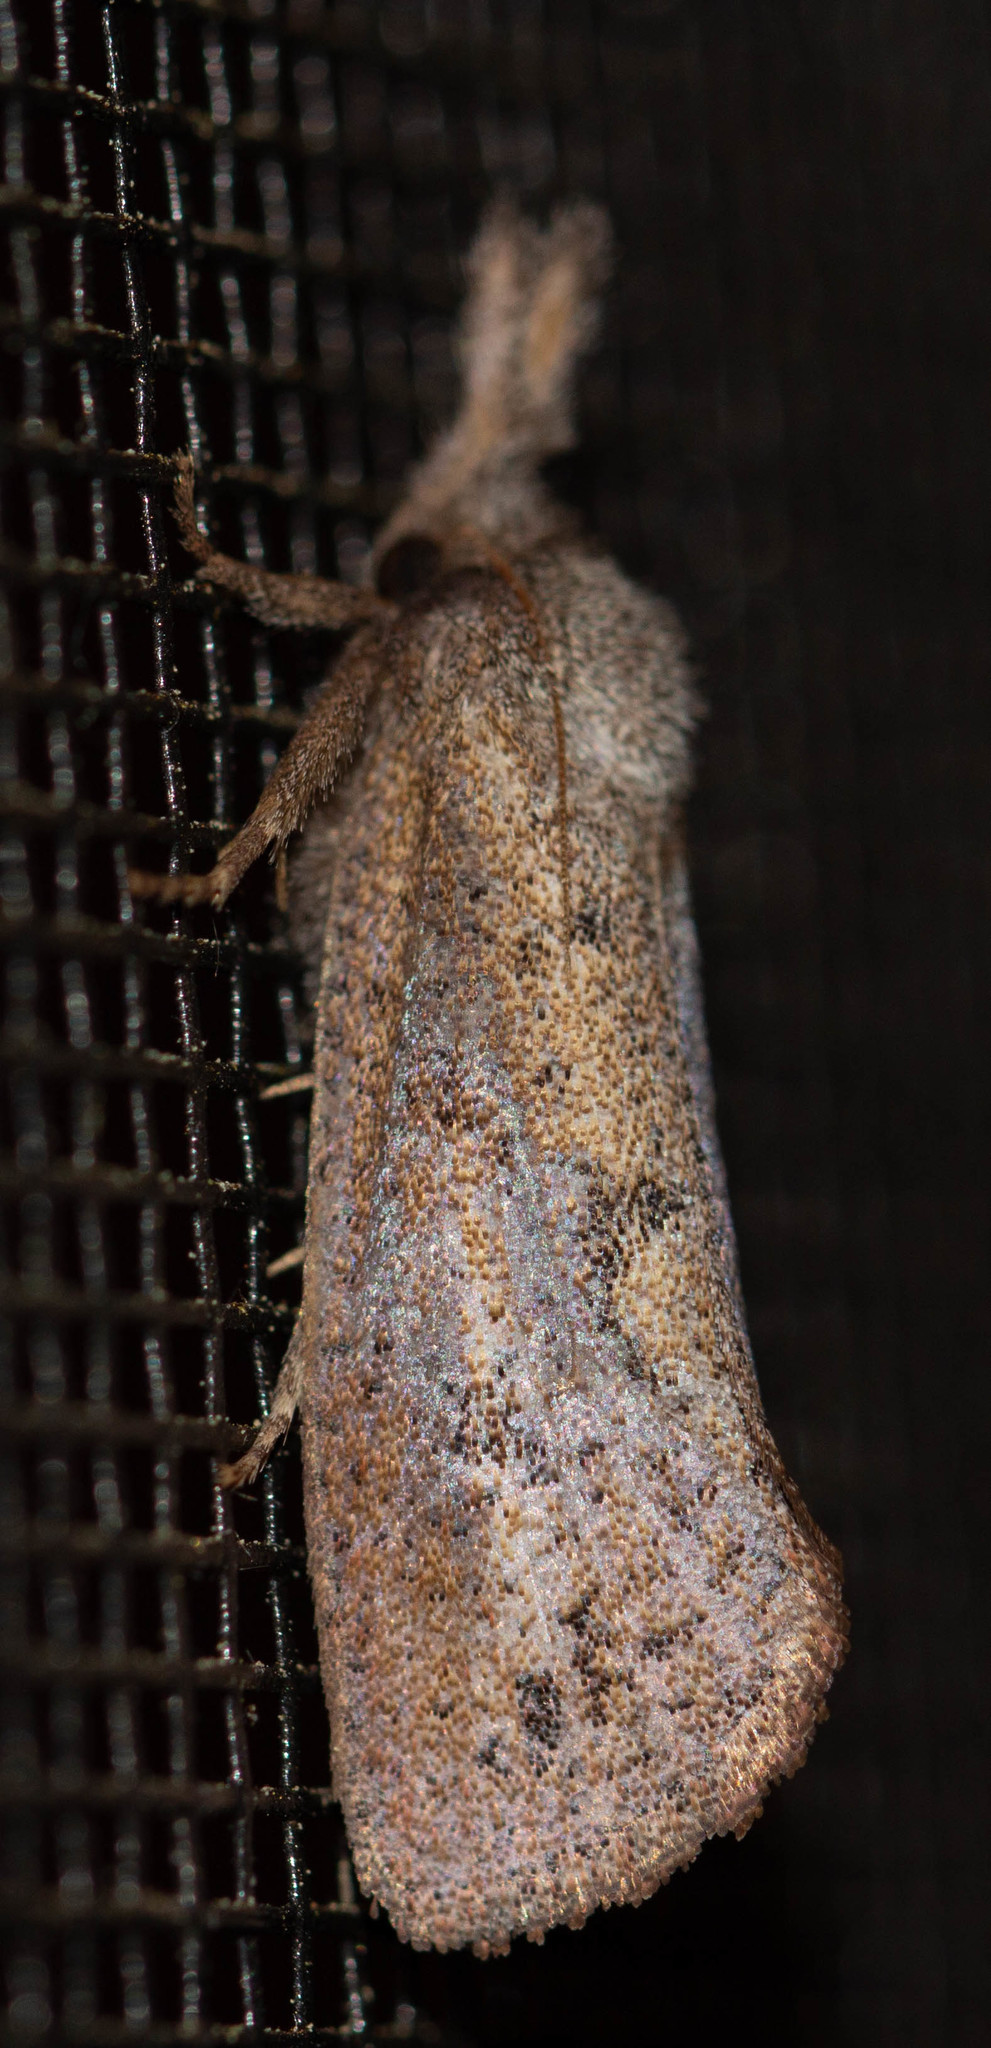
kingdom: Animalia
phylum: Arthropoda
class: Insecta
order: Lepidoptera
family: Tineidae
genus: Acrolophus
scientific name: Acrolophus plumifrontella
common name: Eastern grass tubeworm moth
